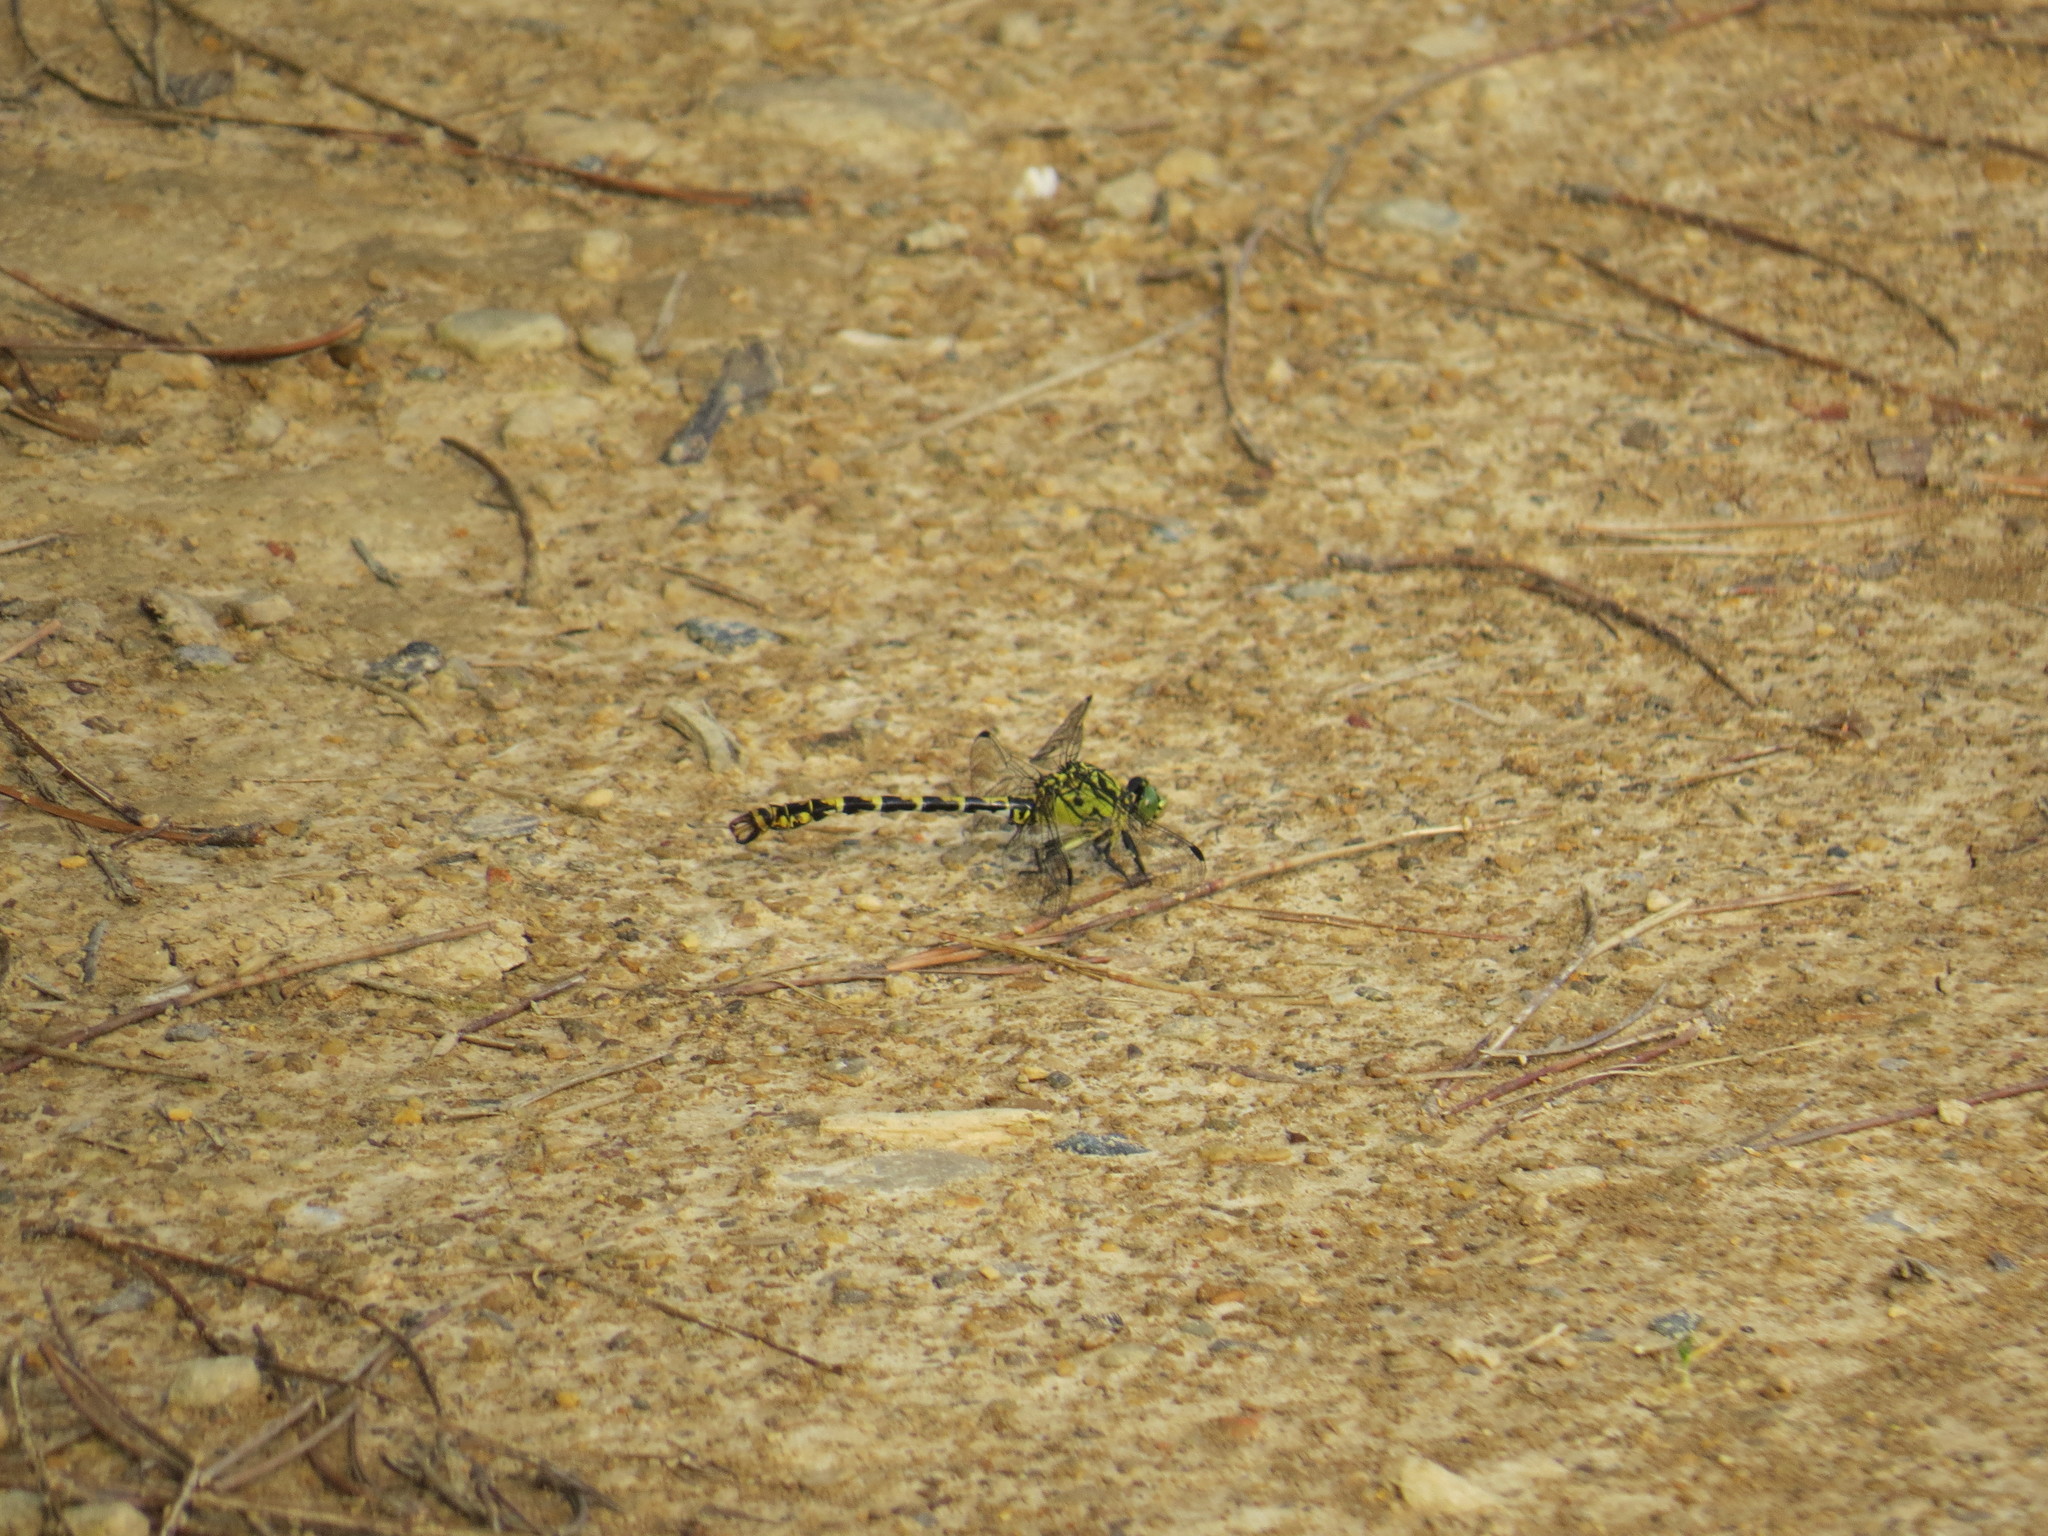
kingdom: Animalia
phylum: Arthropoda
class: Insecta
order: Odonata
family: Gomphidae
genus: Onychogomphus
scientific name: Onychogomphus forcipatus
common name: Small pincertail
